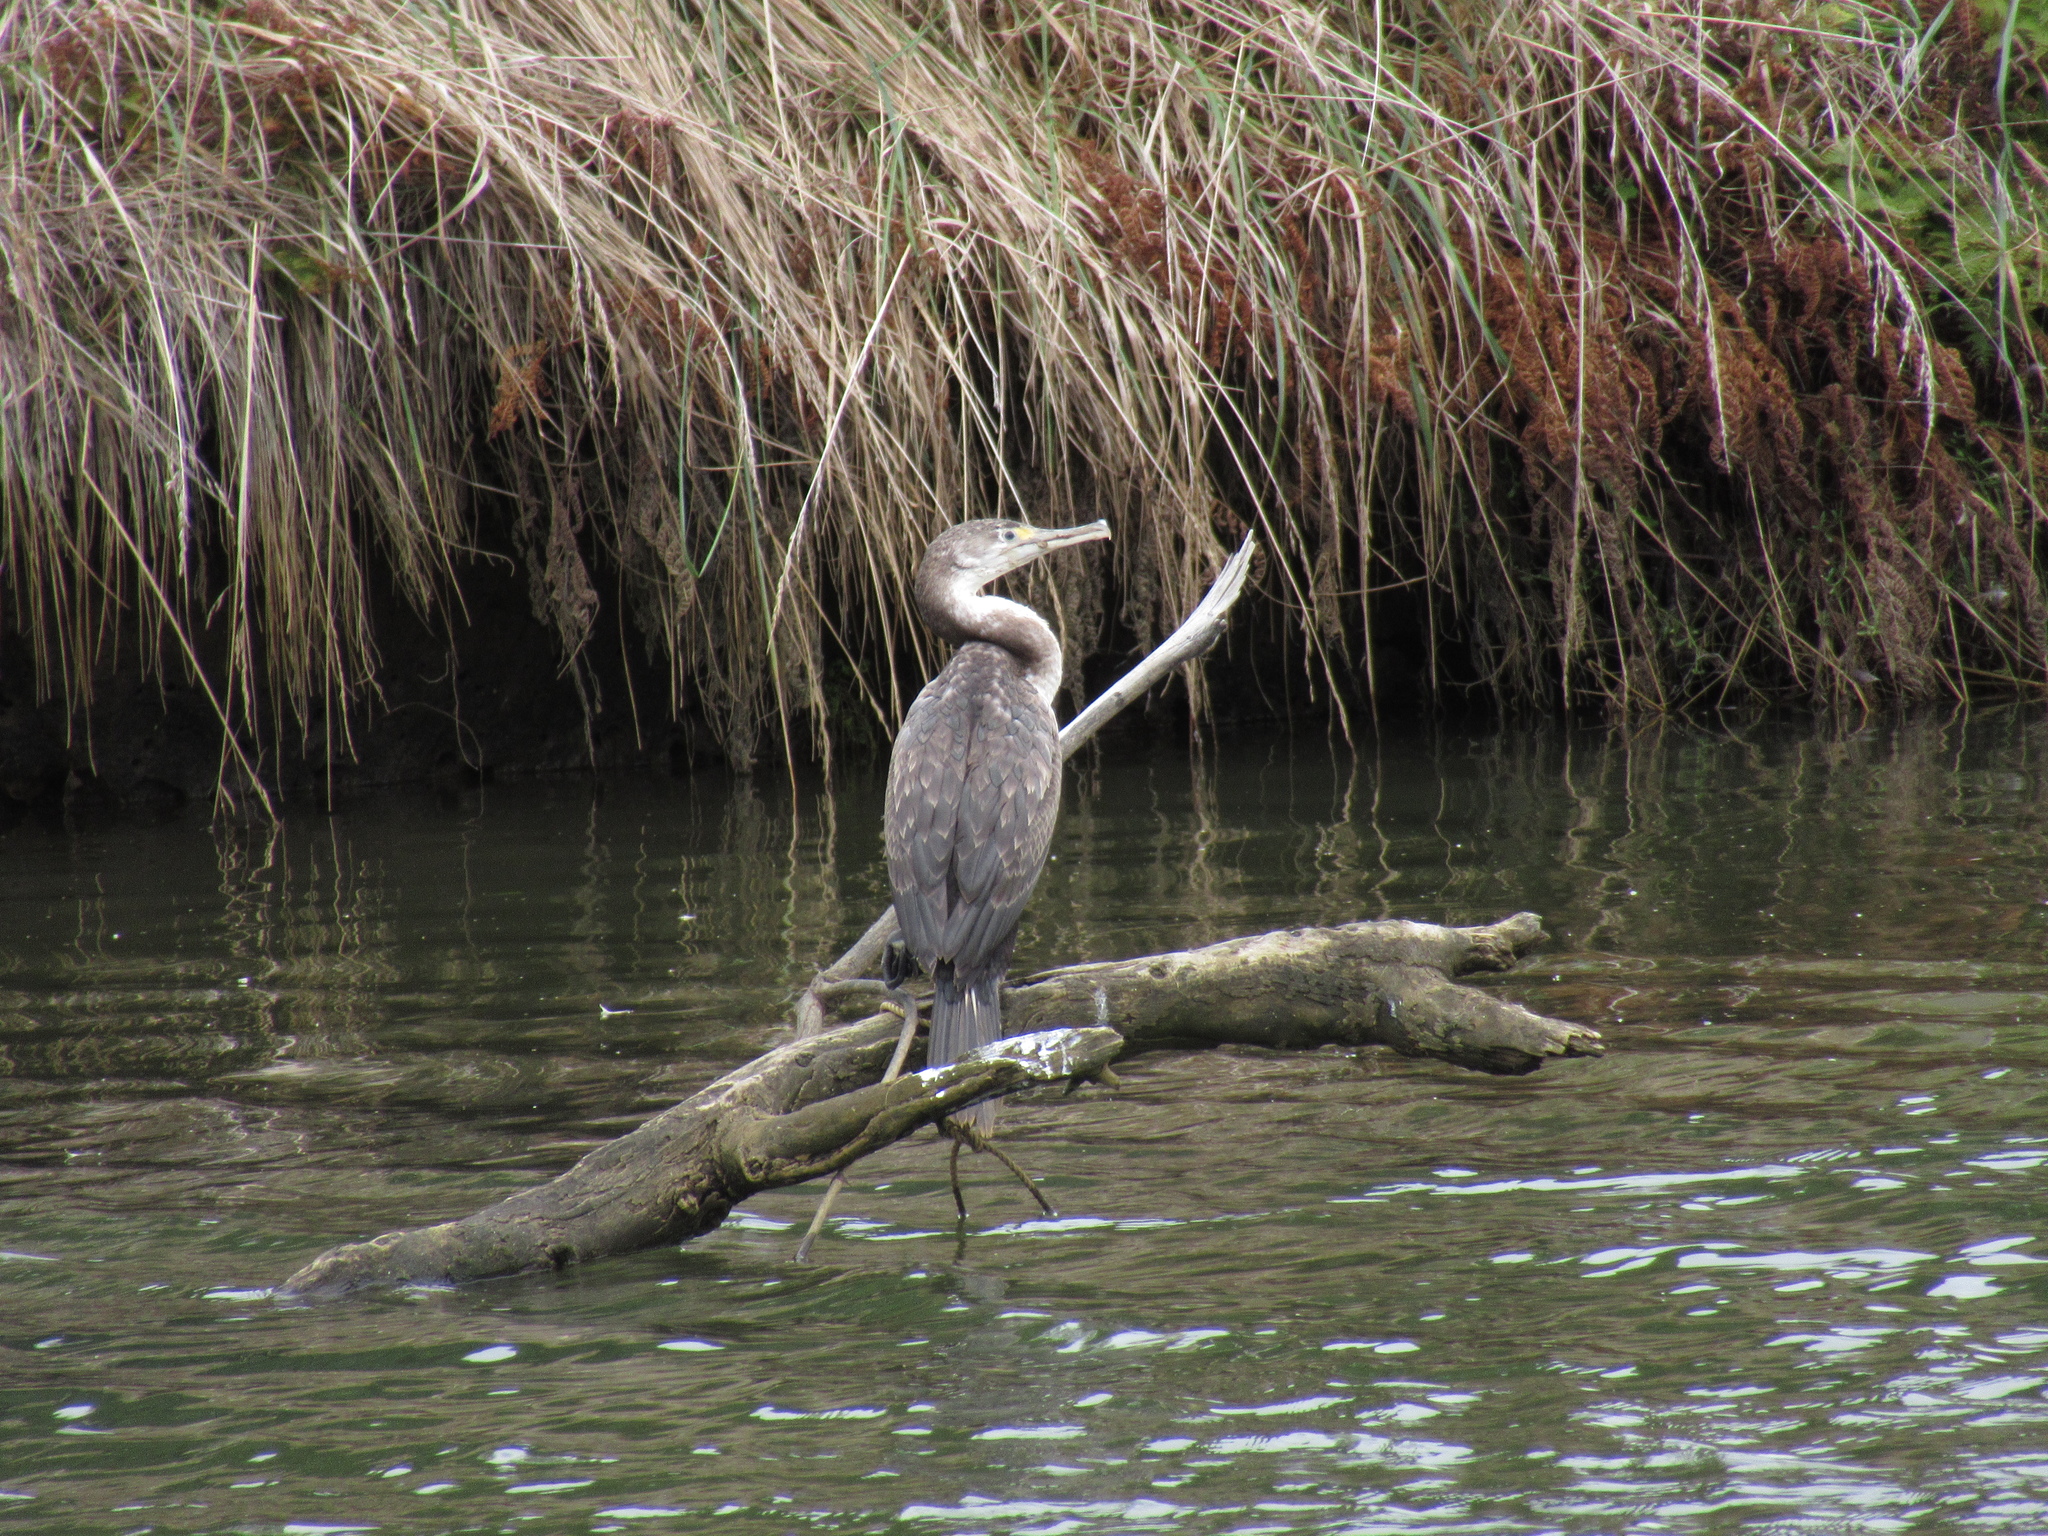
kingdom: Animalia
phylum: Chordata
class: Aves
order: Suliformes
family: Phalacrocoracidae
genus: Phalacrocorax
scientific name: Phalacrocorax varius
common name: Pied cormorant
